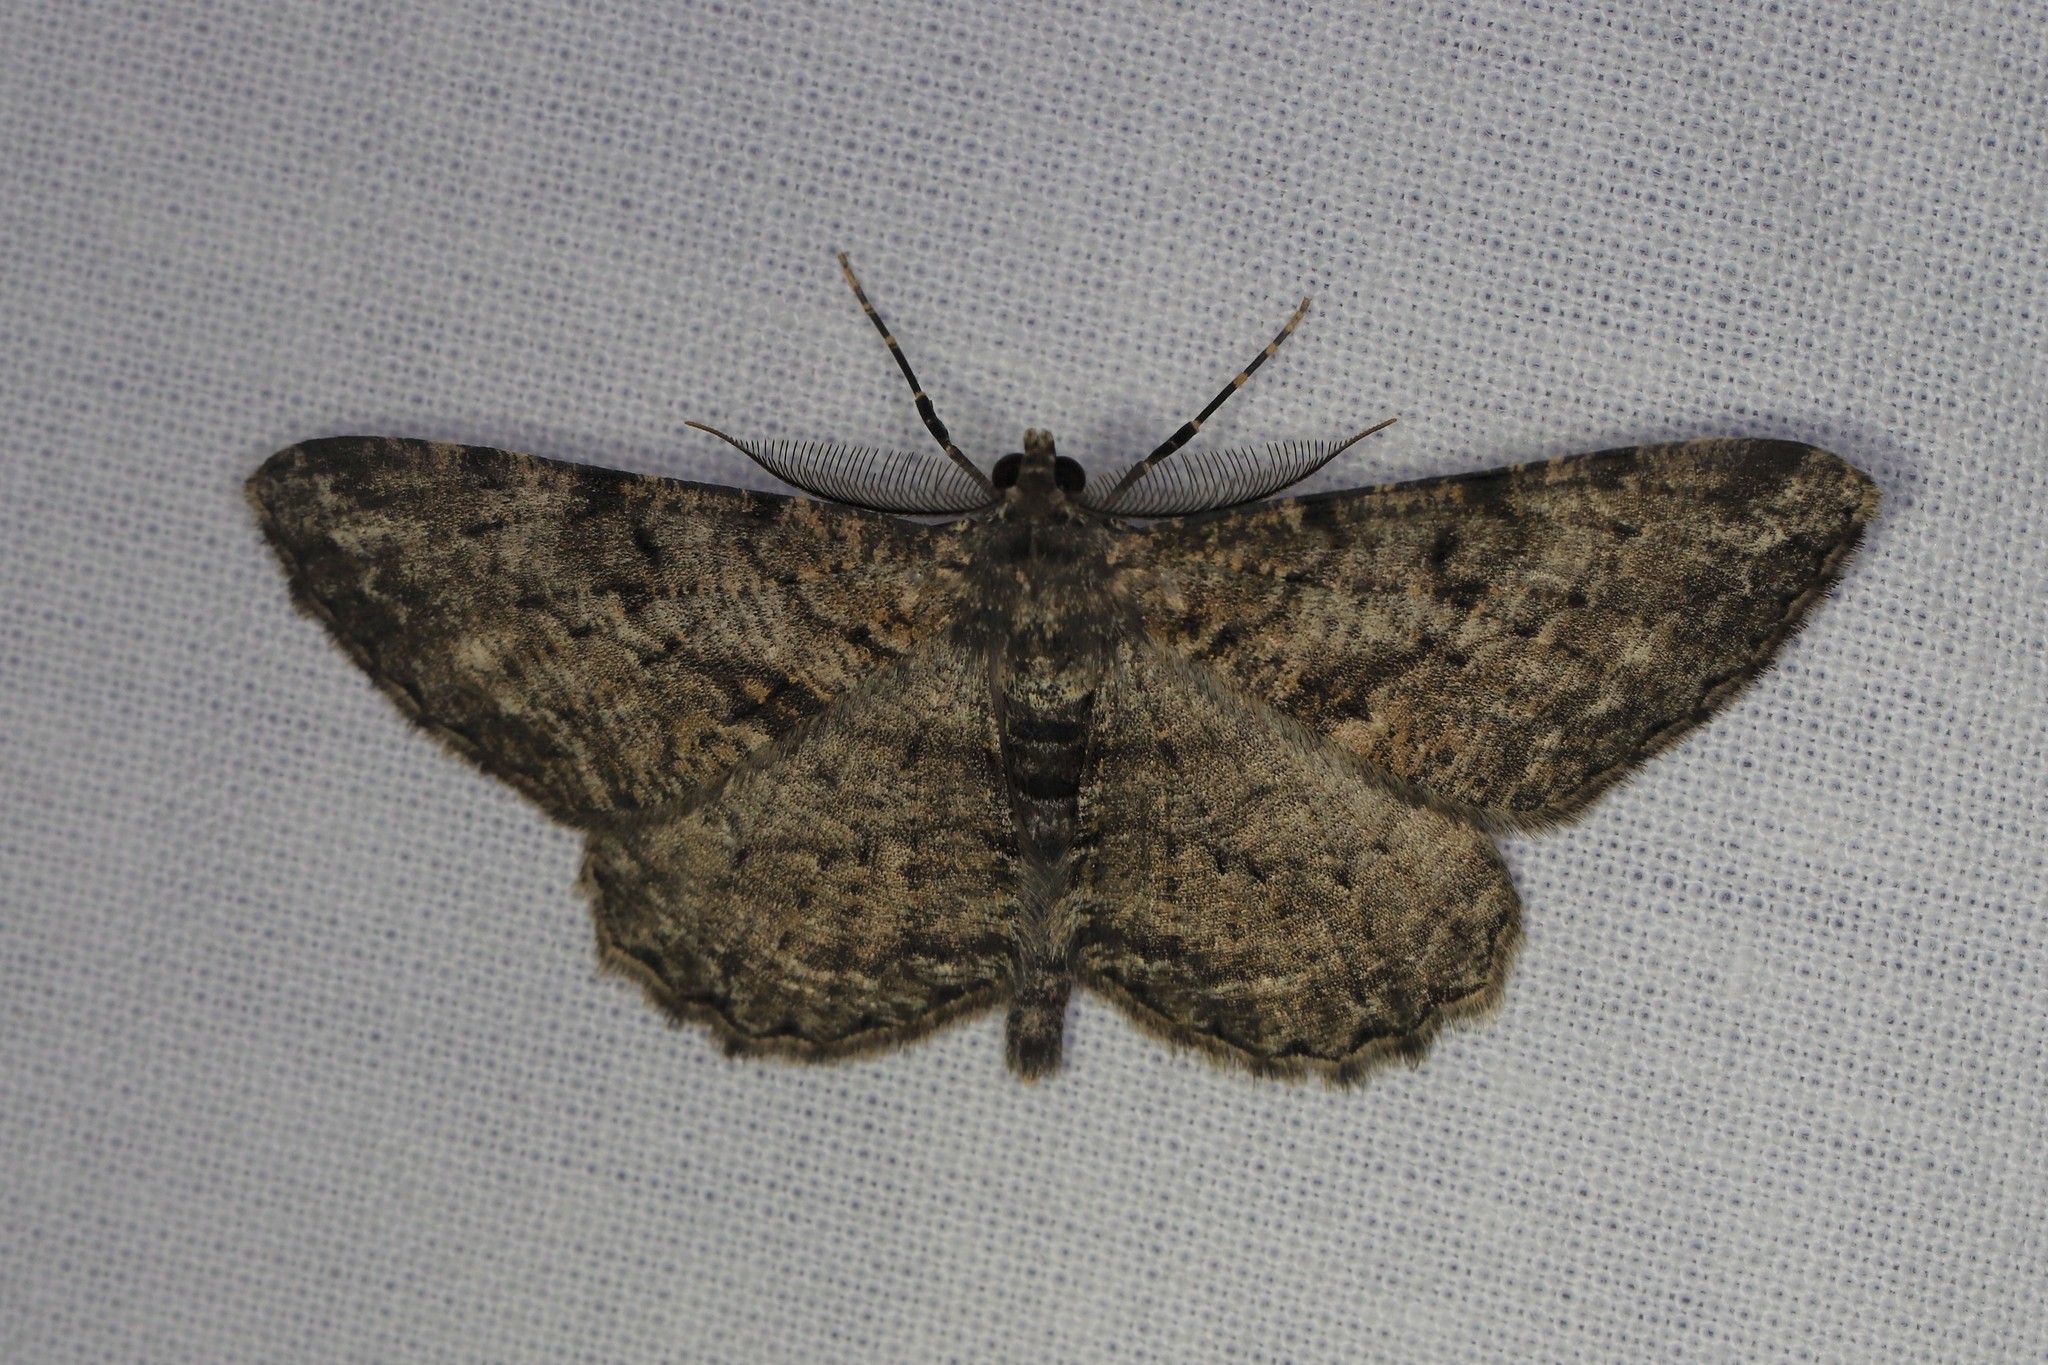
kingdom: Animalia
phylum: Arthropoda
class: Insecta
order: Lepidoptera
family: Geometridae
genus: Peribatodes
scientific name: Peribatodes rhomboidaria
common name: Willow beauty
